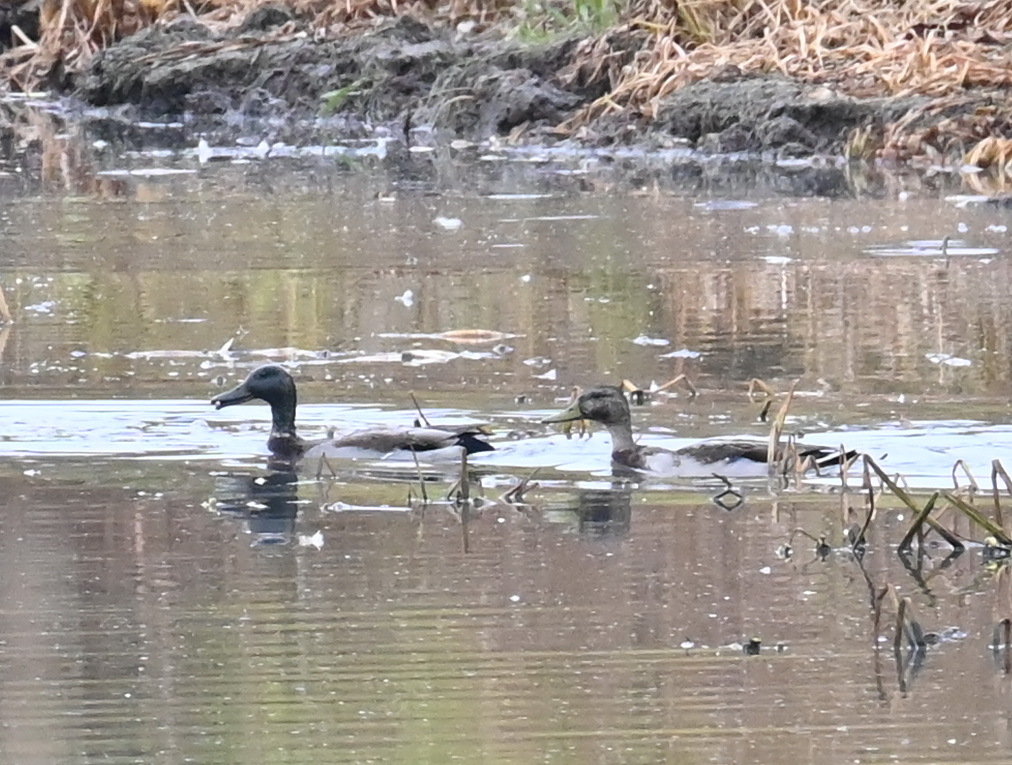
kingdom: Animalia
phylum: Chordata
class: Aves
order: Anseriformes
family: Anatidae
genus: Anas
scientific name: Anas platyrhynchos
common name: Mallard
